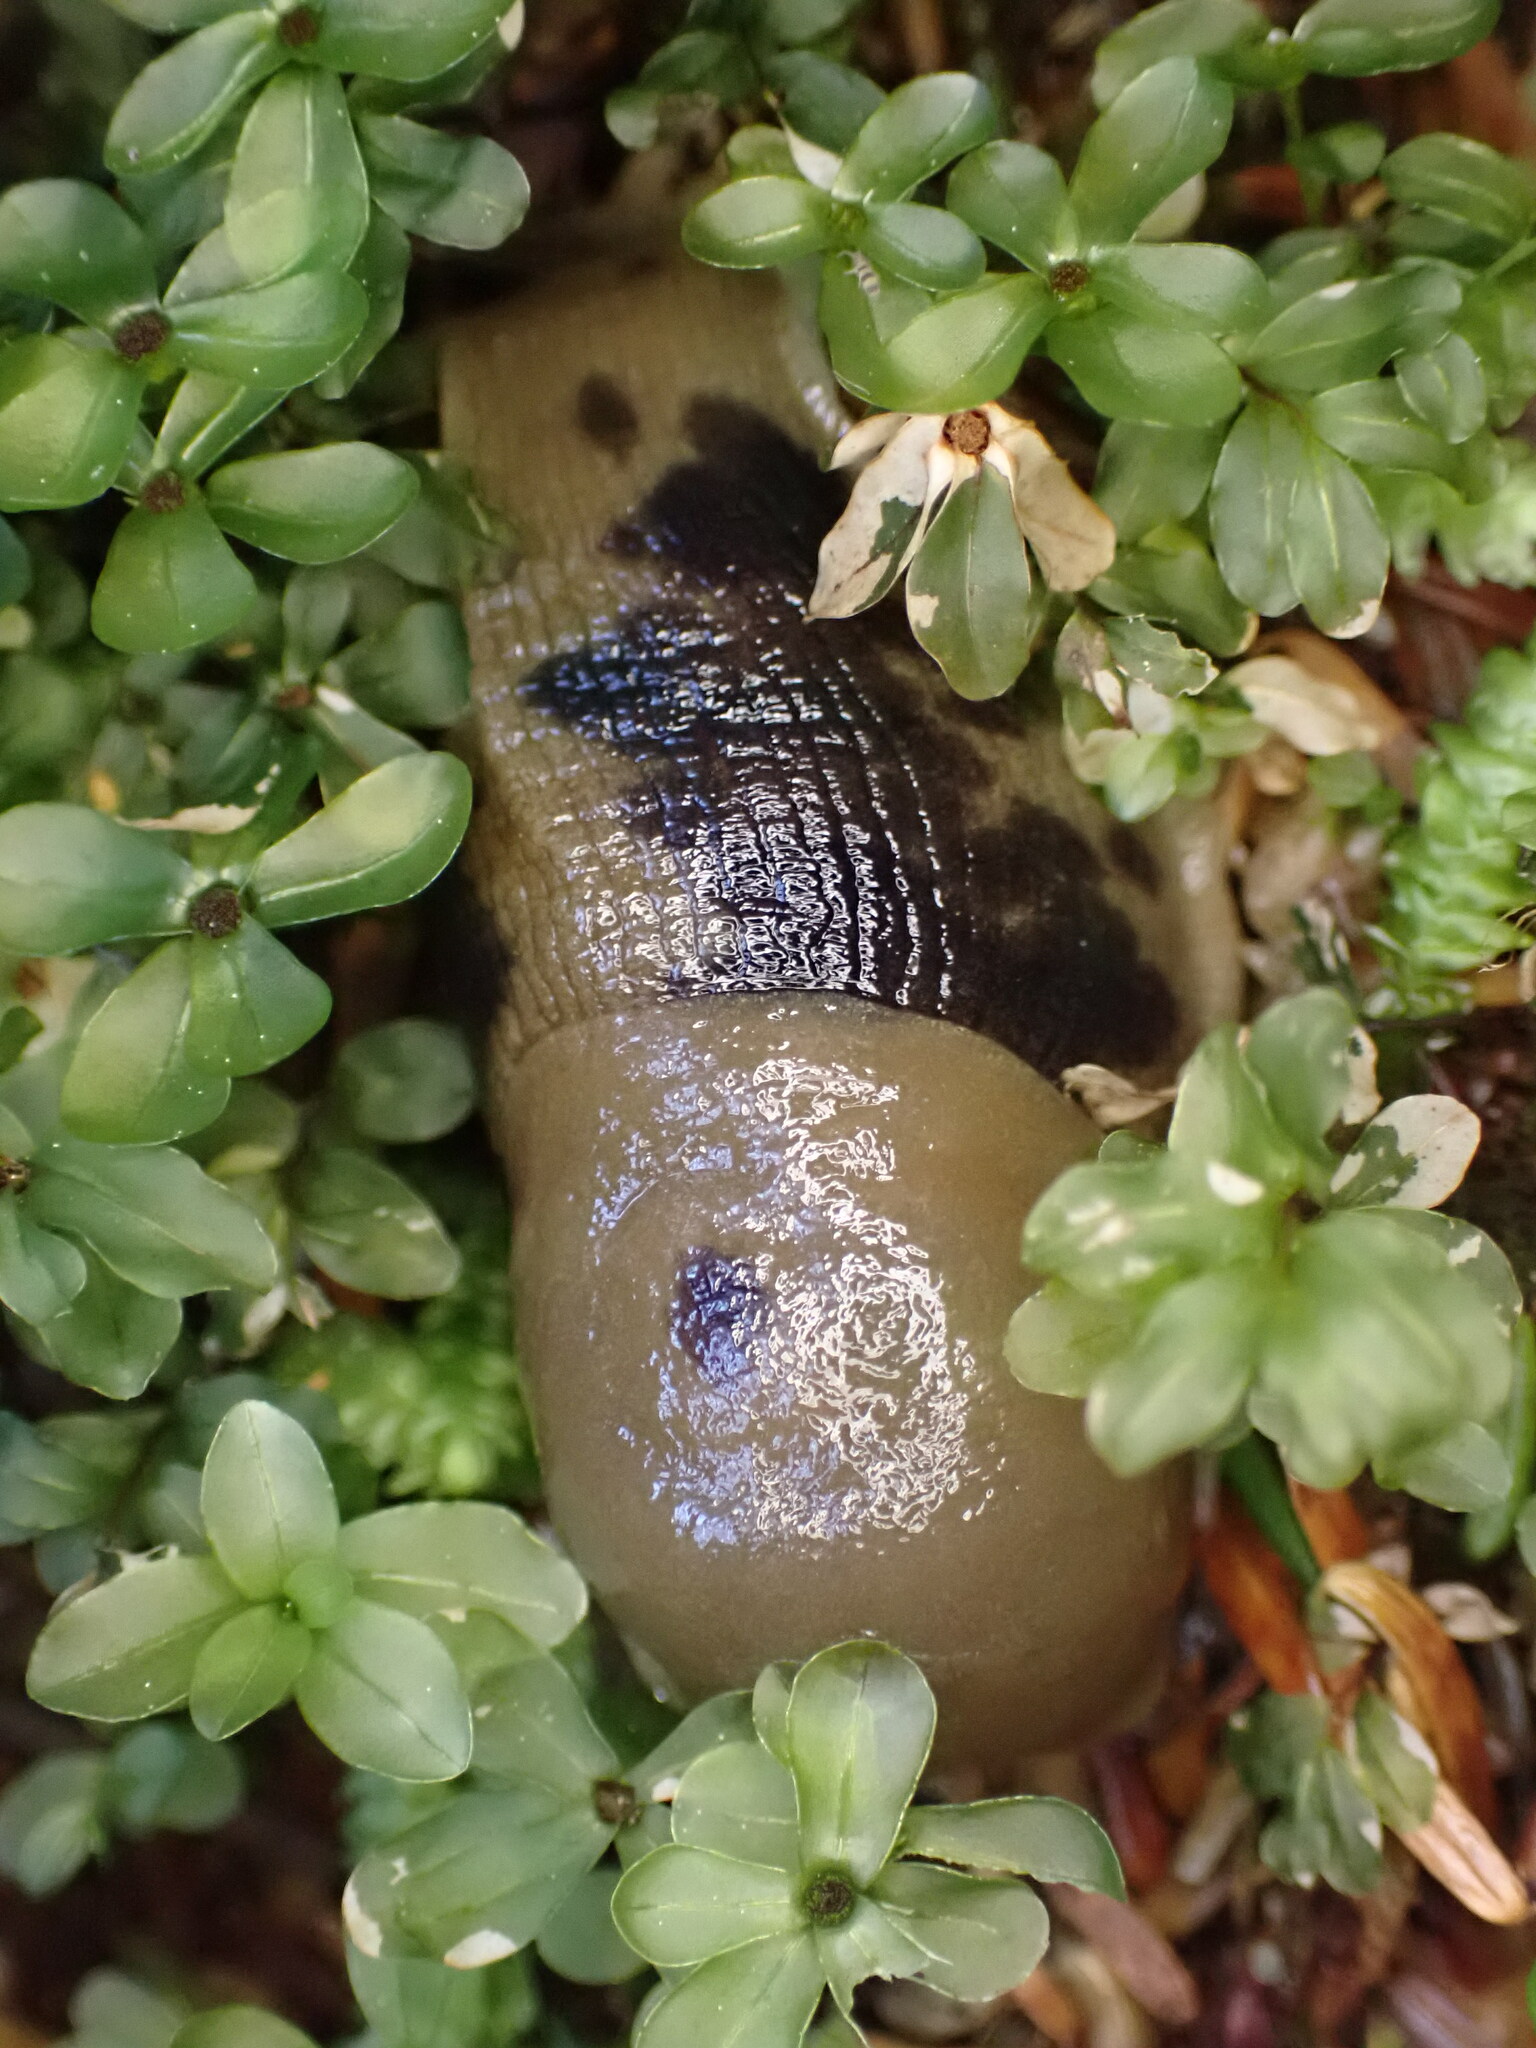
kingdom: Animalia
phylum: Mollusca
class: Gastropoda
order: Stylommatophora
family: Ariolimacidae
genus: Ariolimax
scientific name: Ariolimax columbianus
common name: Pacific banana slug
